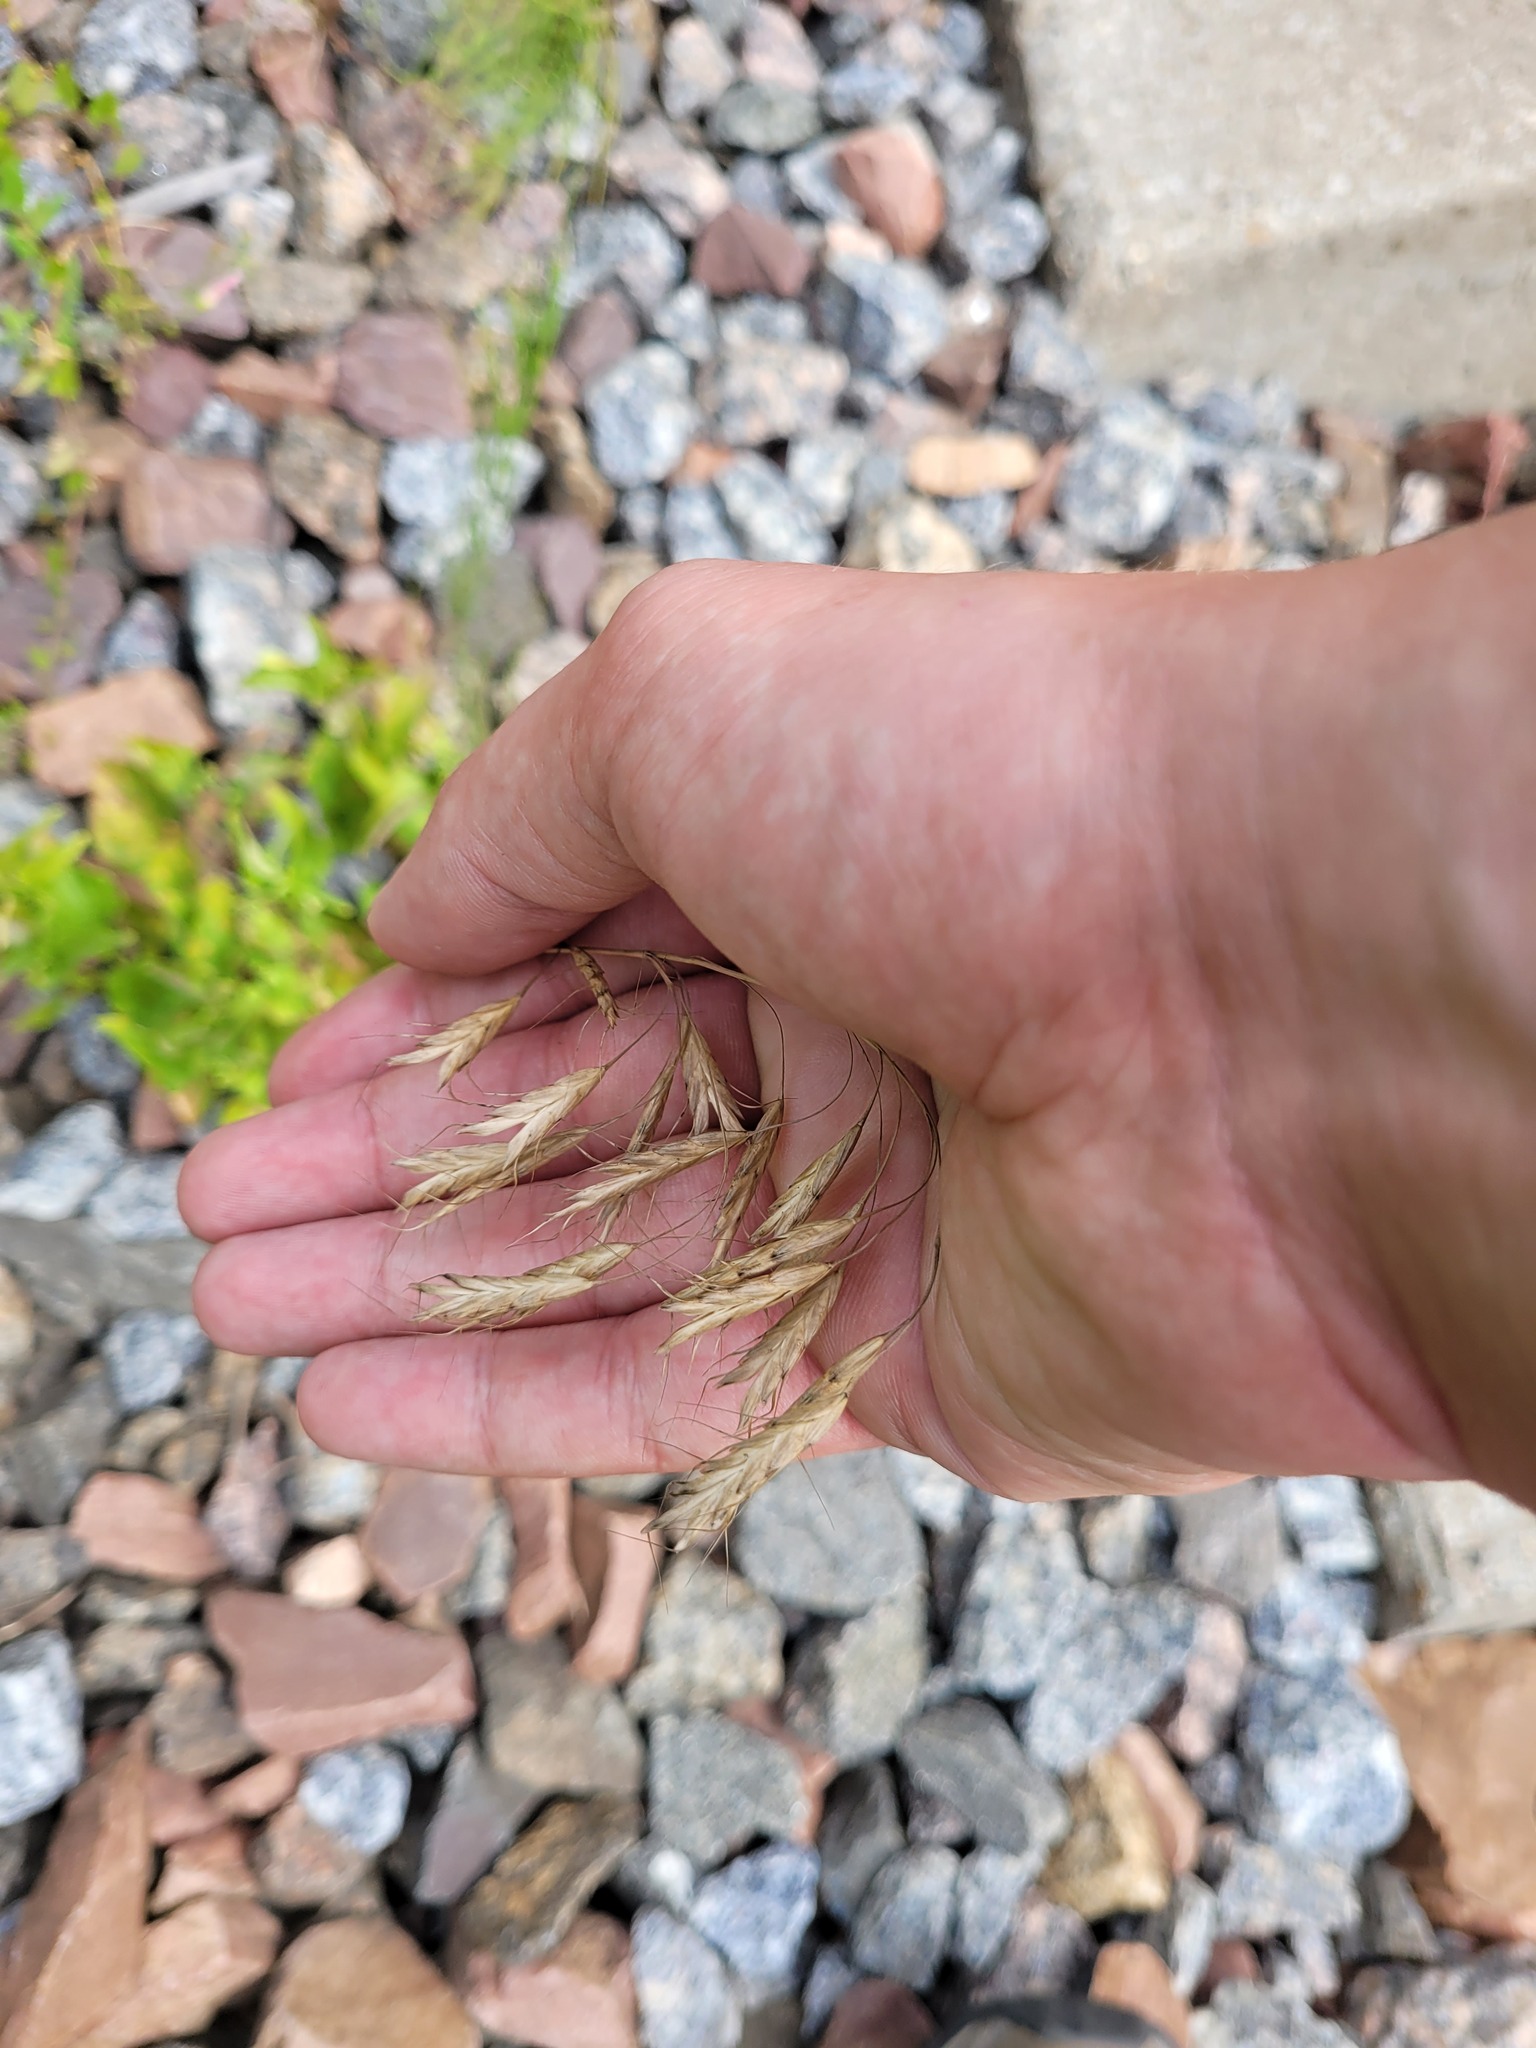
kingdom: Plantae
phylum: Tracheophyta
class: Liliopsida
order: Poales
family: Poaceae
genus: Bromus
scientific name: Bromus japonicus
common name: Japanese brome
